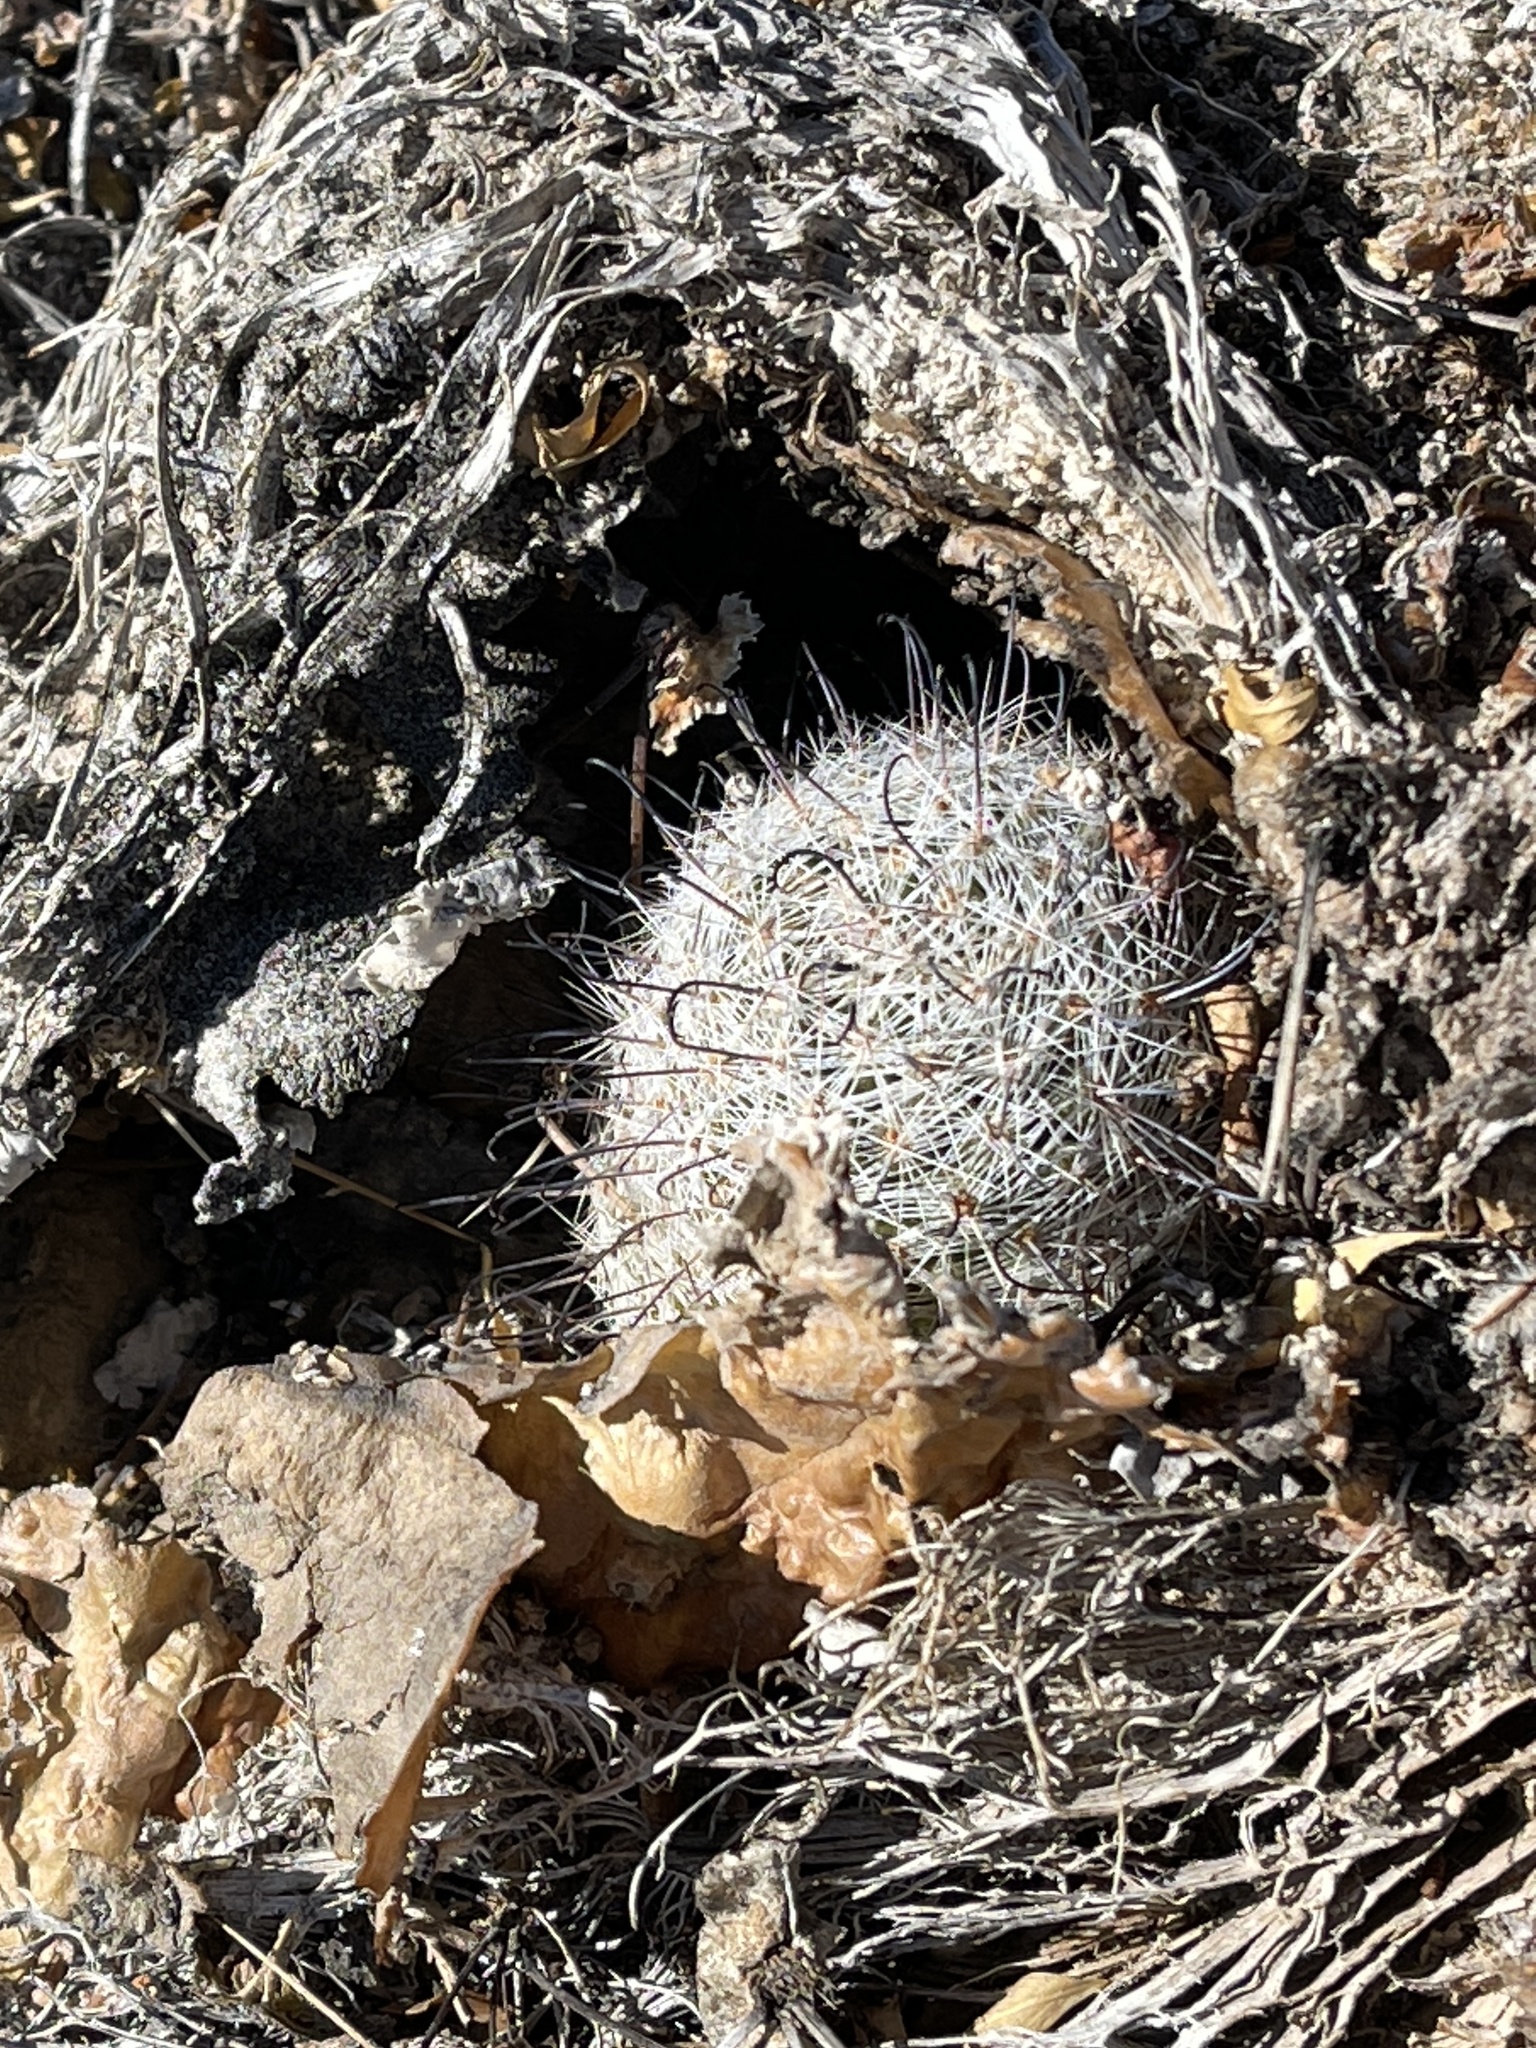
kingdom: Plantae
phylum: Tracheophyta
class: Magnoliopsida
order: Caryophyllales
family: Cactaceae
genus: Cochemiea
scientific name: Cochemiea grahamii
